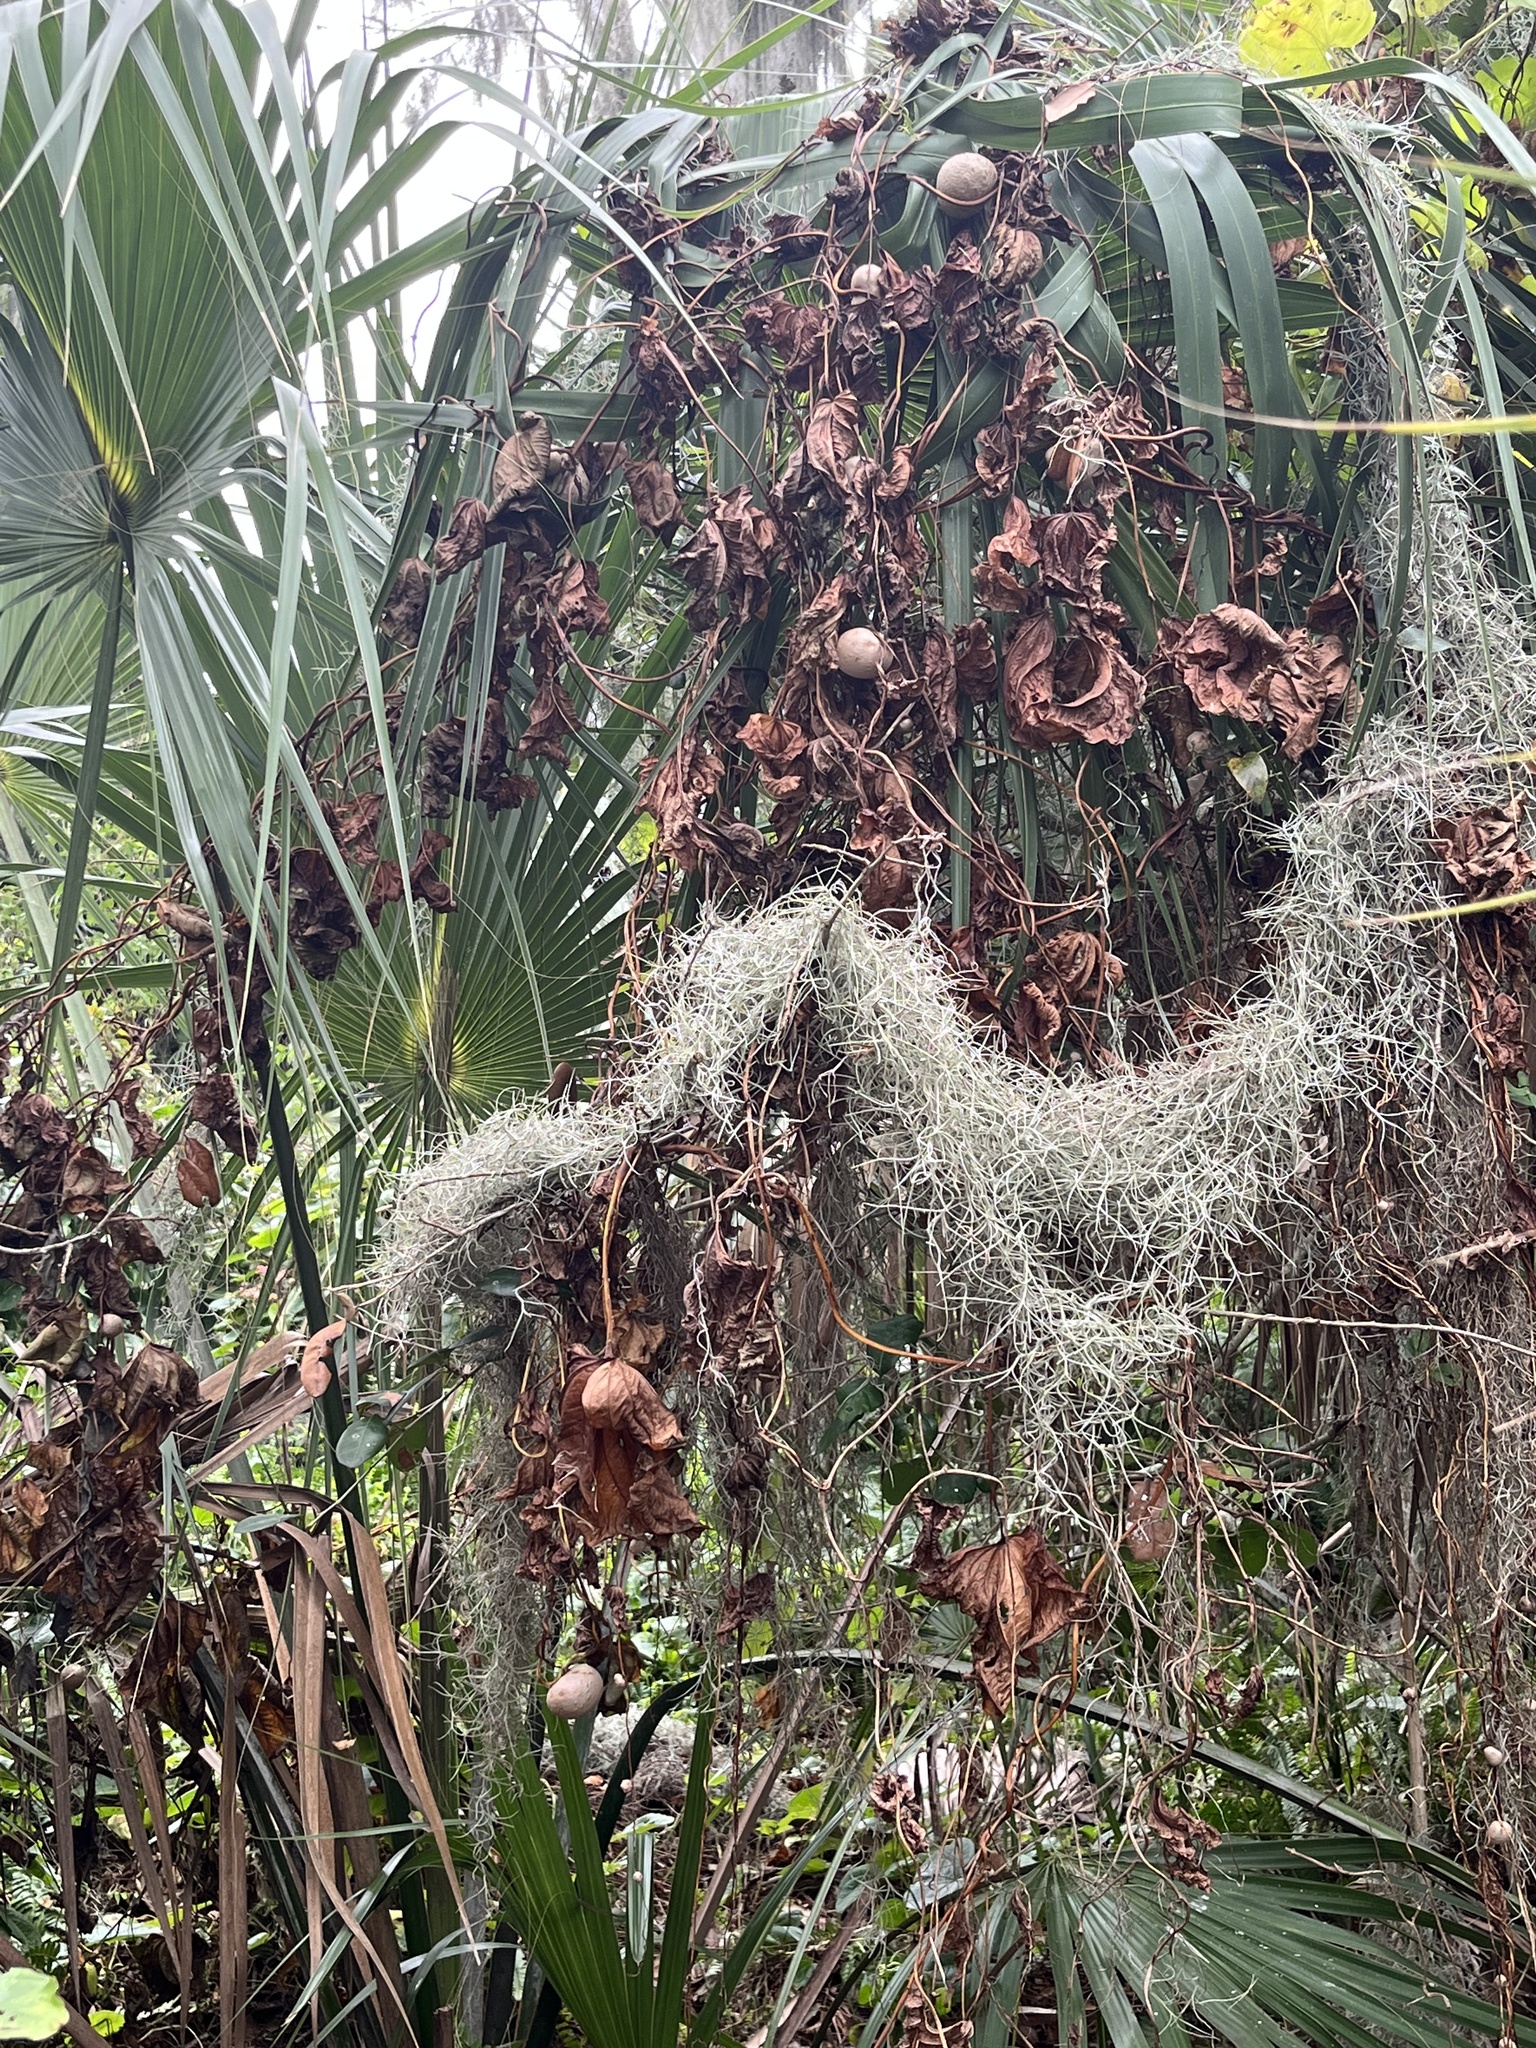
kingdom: Plantae
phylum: Tracheophyta
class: Liliopsida
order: Dioscoreales
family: Dioscoreaceae
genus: Dioscorea
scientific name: Dioscorea bulbifera
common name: Air yam
